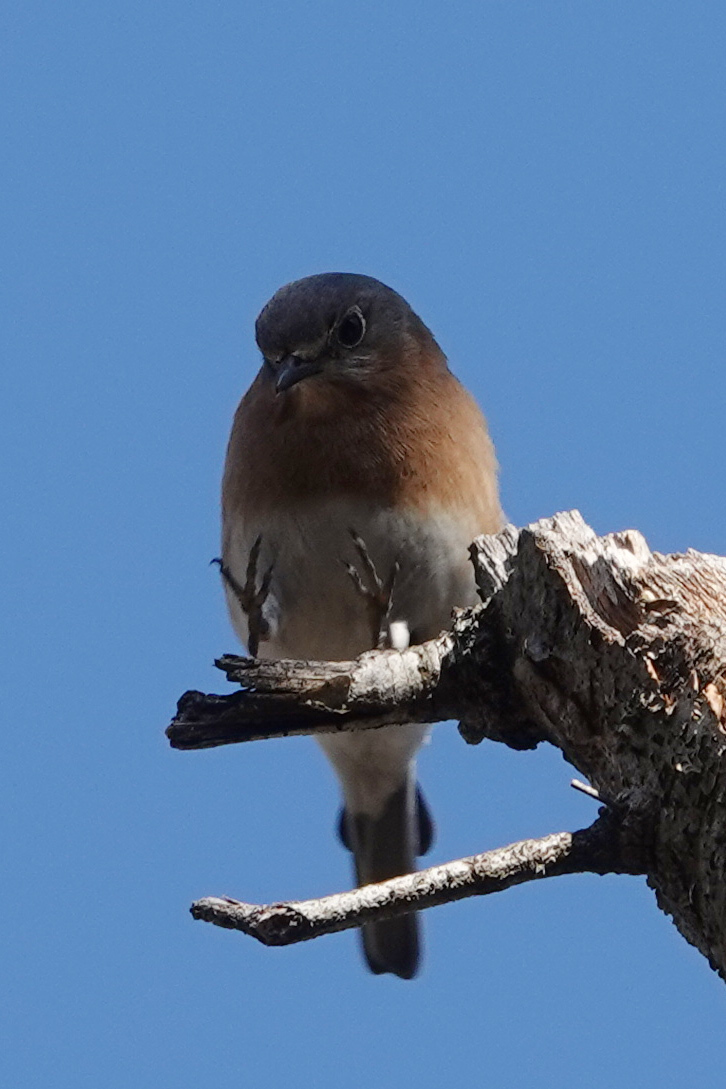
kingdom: Animalia
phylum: Chordata
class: Aves
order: Passeriformes
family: Turdidae
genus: Sialia
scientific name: Sialia sialis
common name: Eastern bluebird
